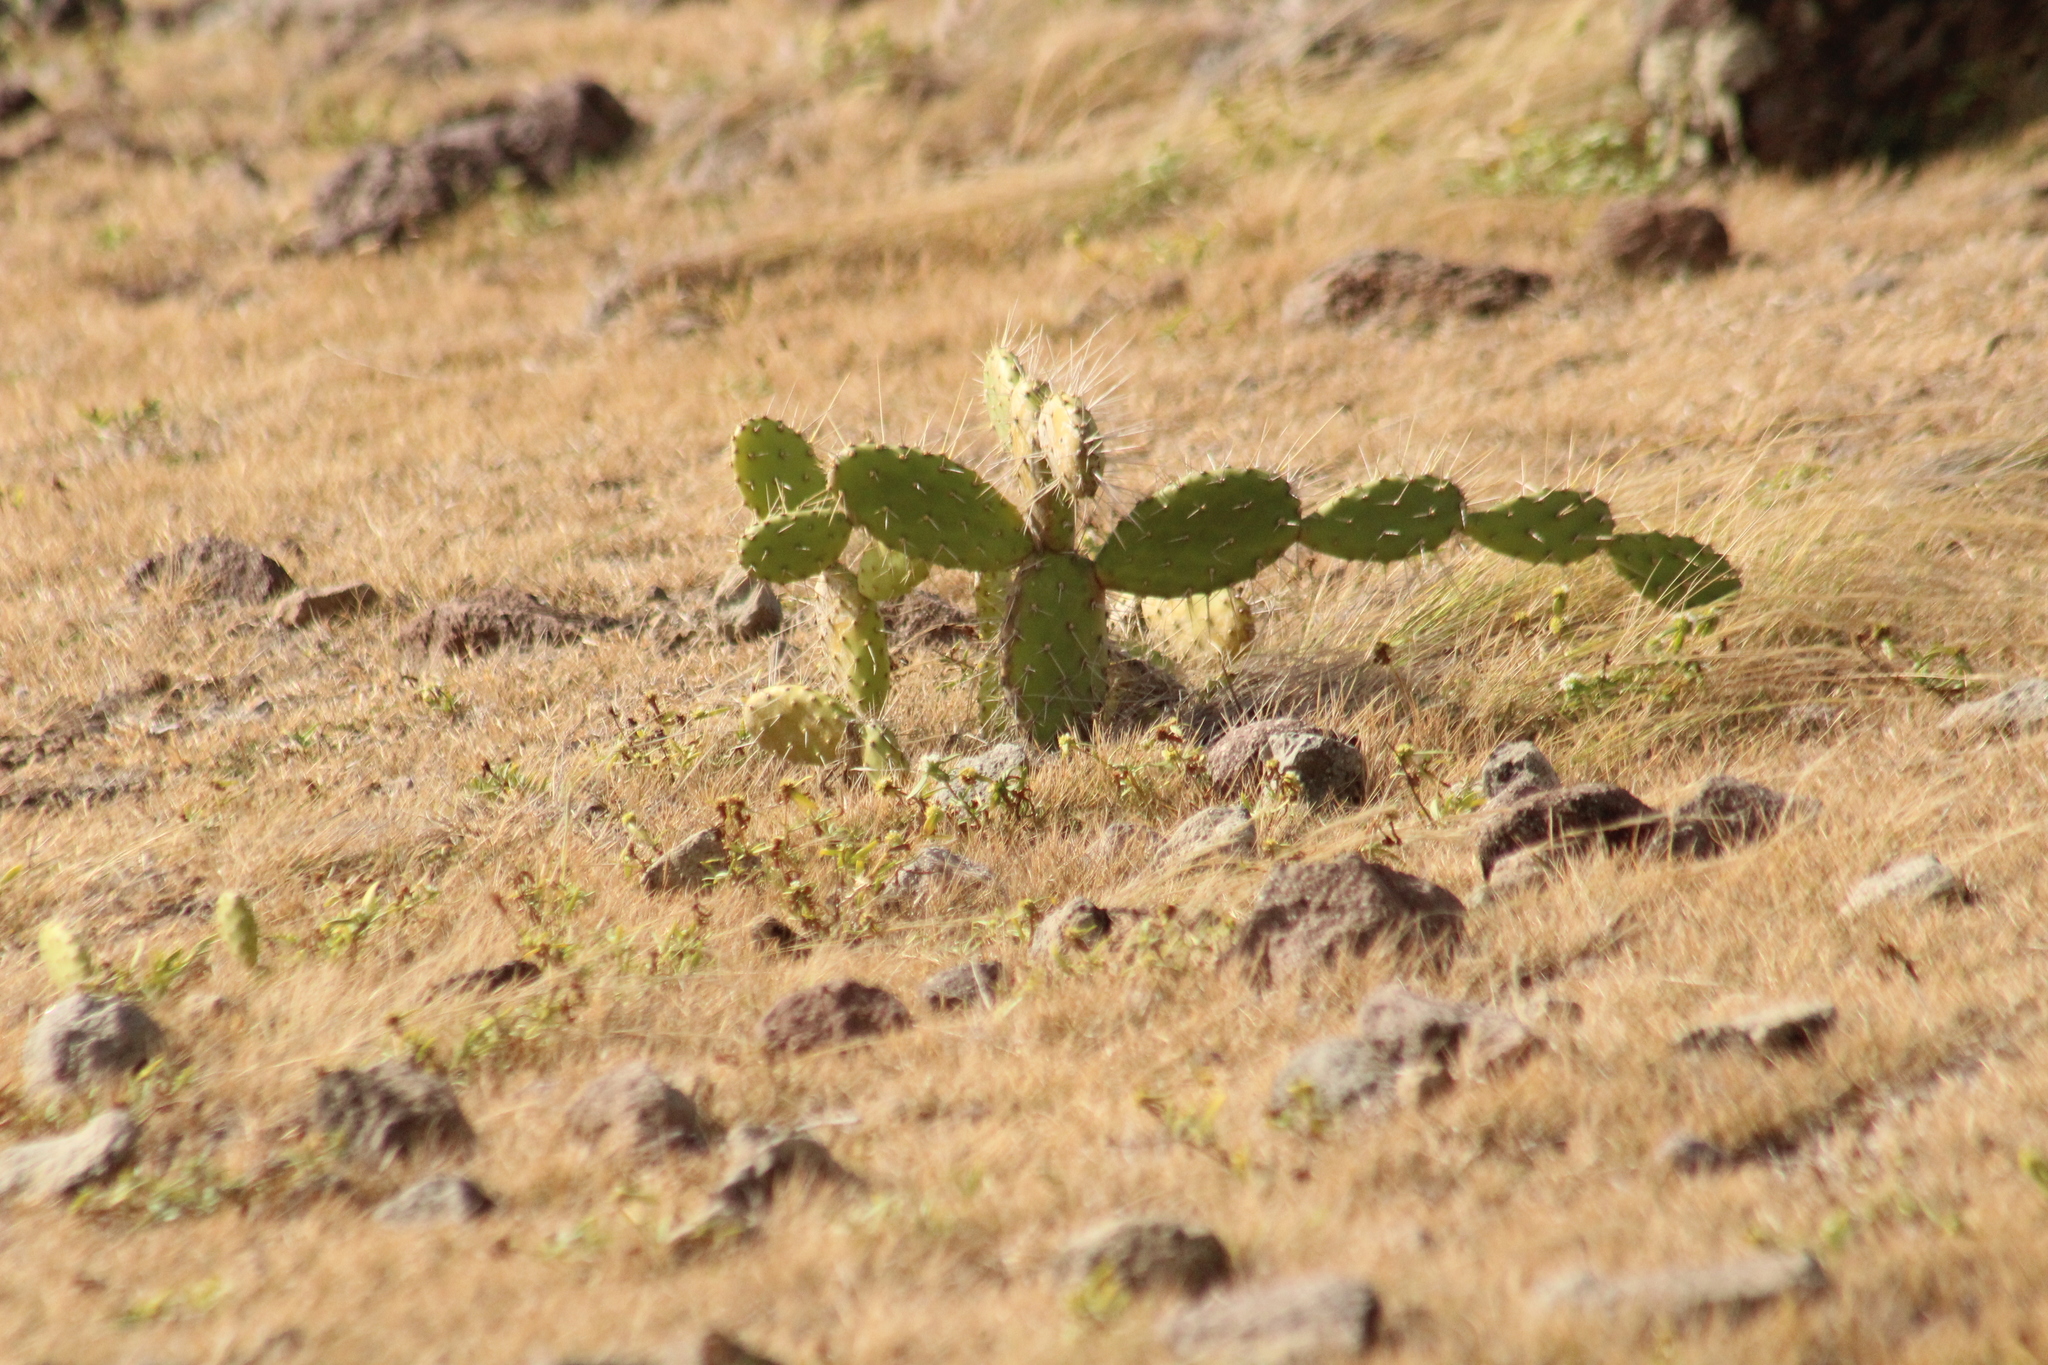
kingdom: Plantae
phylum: Tracheophyta
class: Magnoliopsida
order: Caryophyllales
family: Cactaceae
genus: Opuntia
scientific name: Opuntia triacanthos
